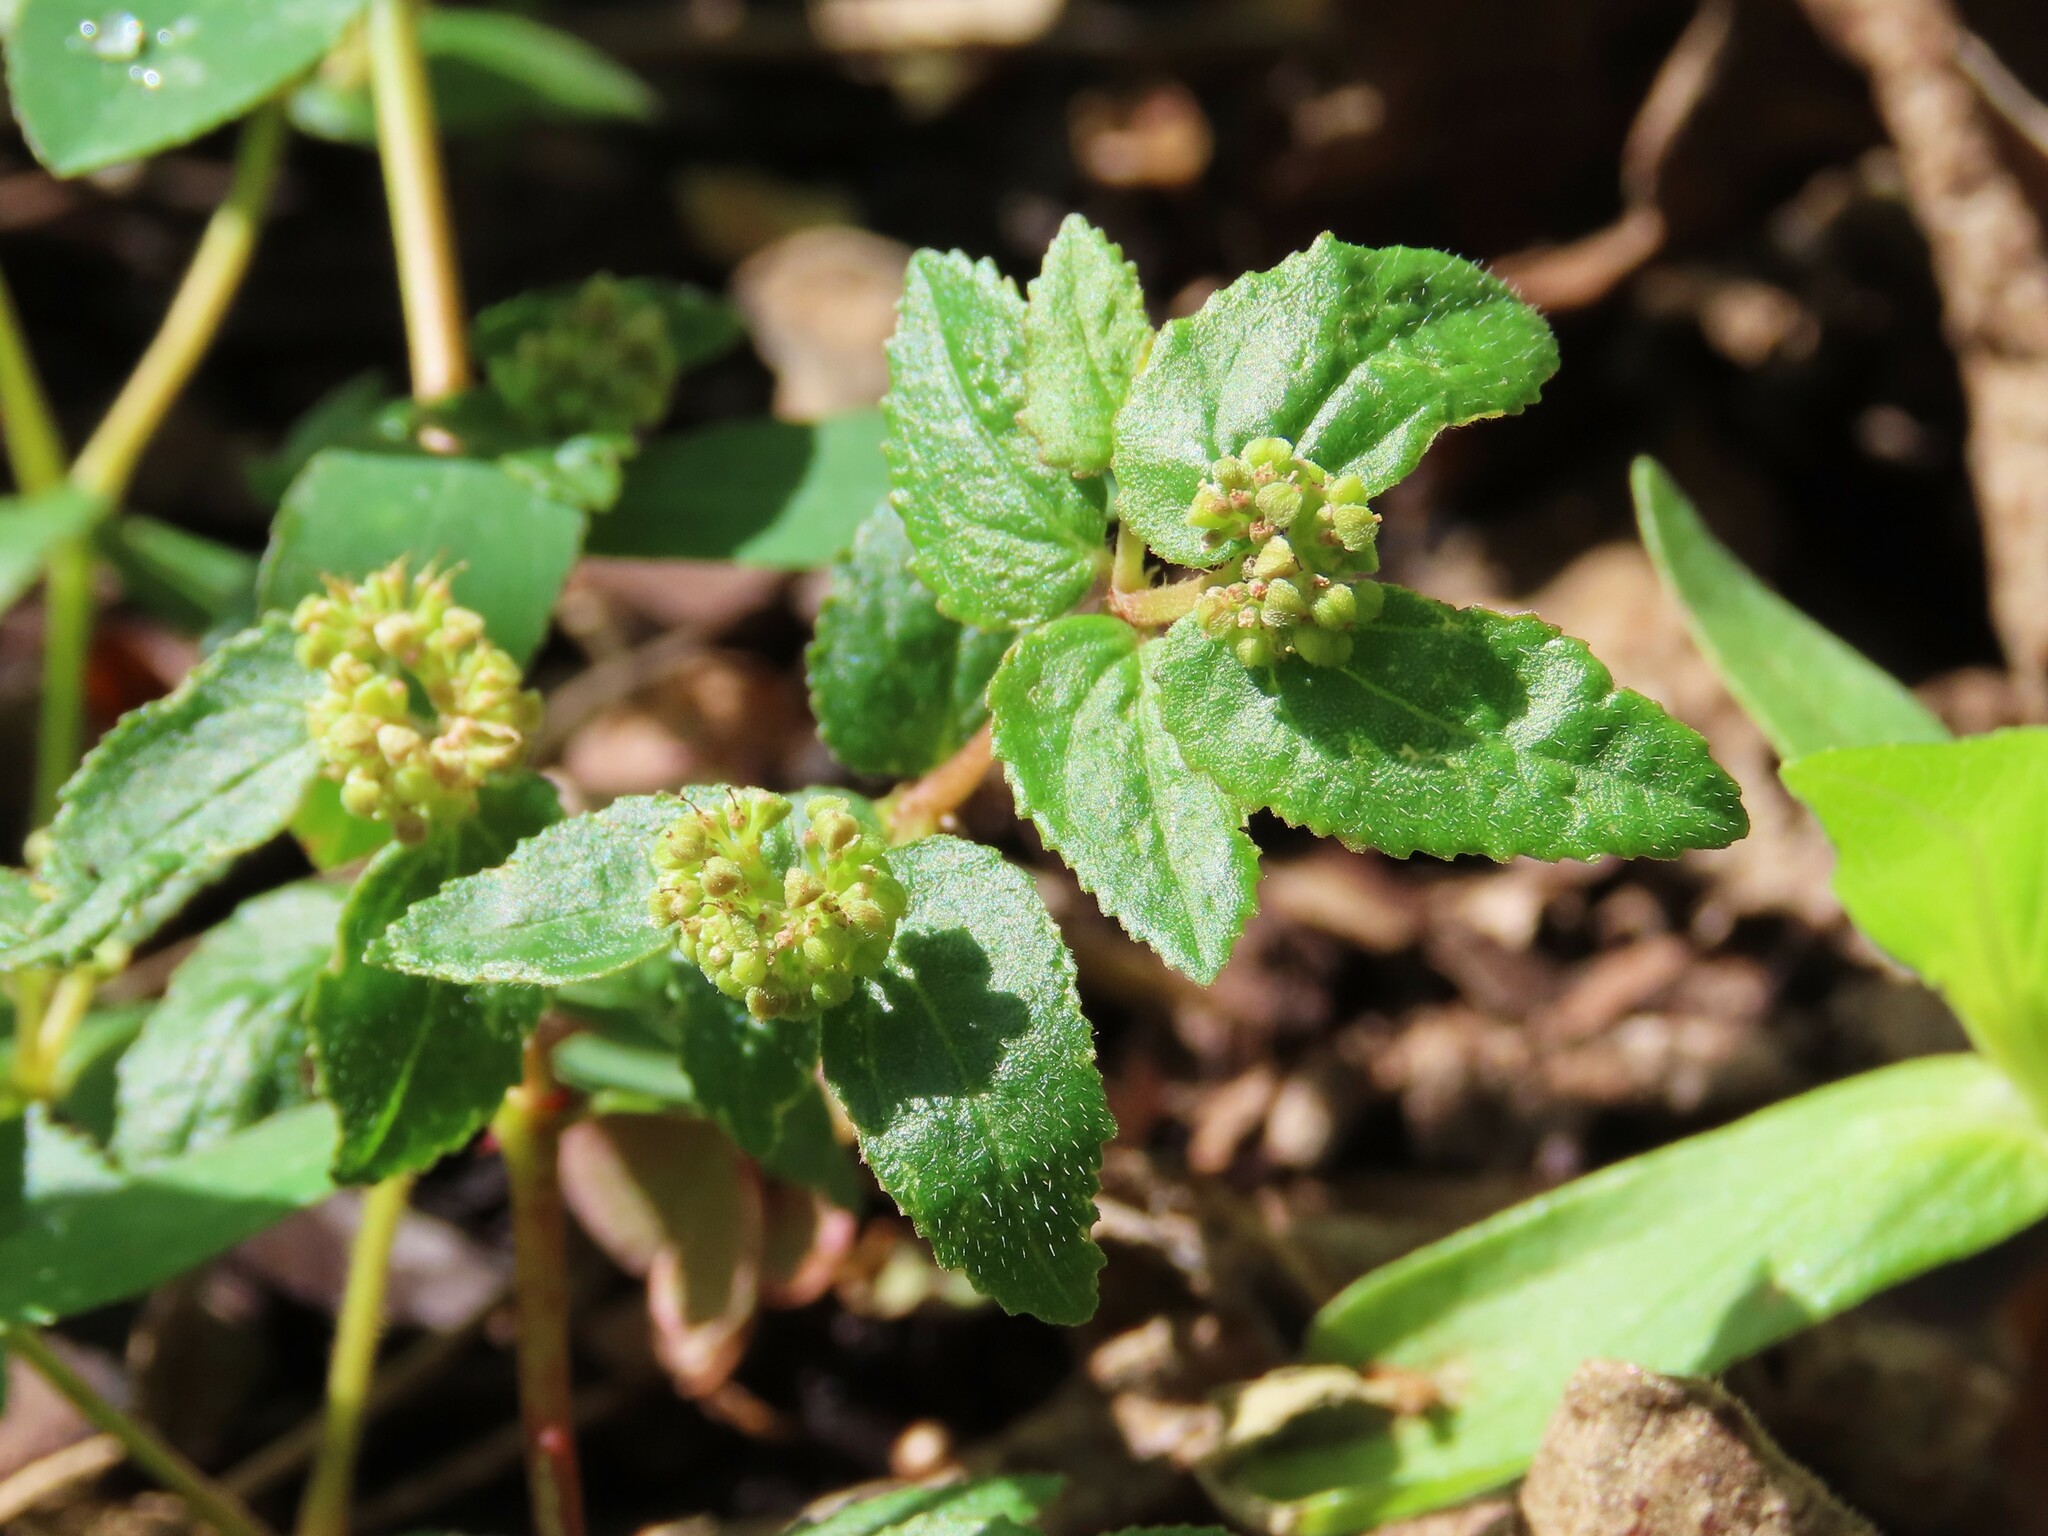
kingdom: Plantae
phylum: Tracheophyta
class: Magnoliopsida
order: Malpighiales
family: Euphorbiaceae
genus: Euphorbia
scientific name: Euphorbia ophthalmica
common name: Florida hammock sandmat
